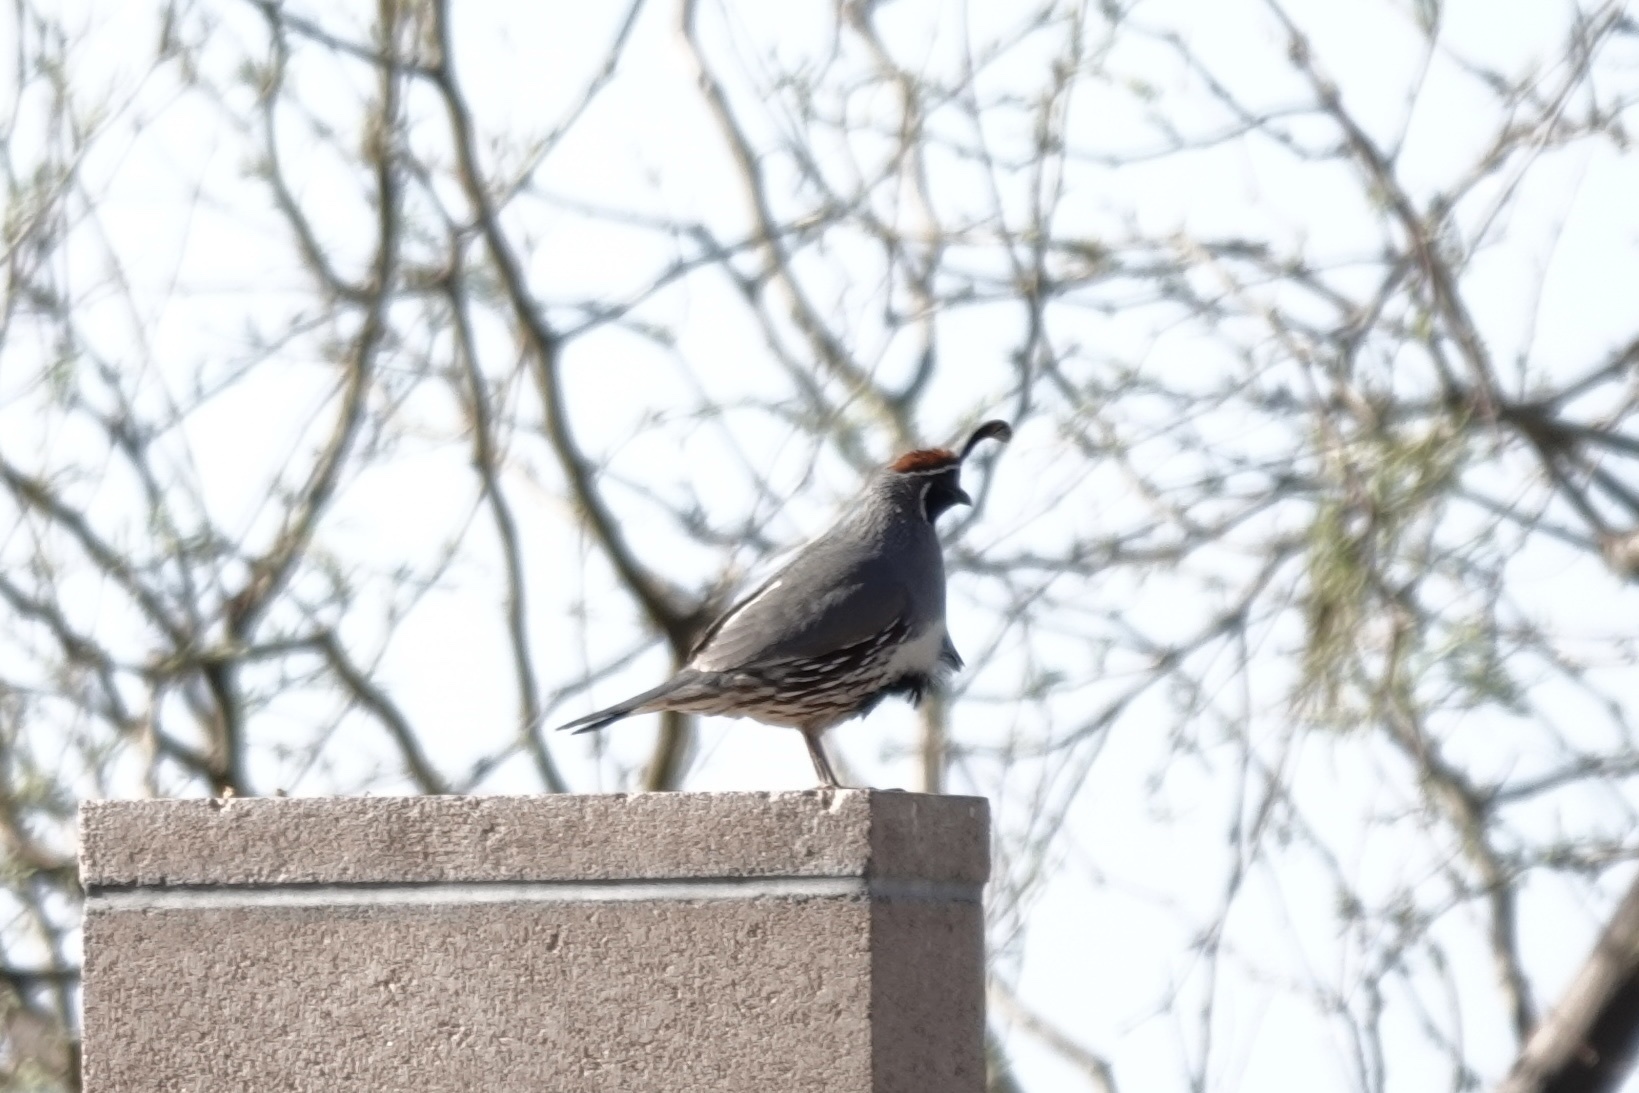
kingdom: Animalia
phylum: Chordata
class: Aves
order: Galliformes
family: Odontophoridae
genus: Callipepla
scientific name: Callipepla gambelii
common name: Gambel's quail
